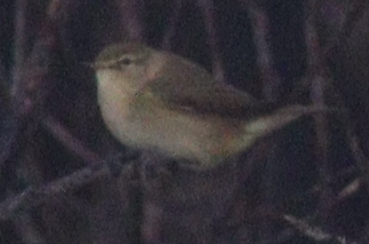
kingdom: Animalia
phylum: Chordata
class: Aves
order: Passeriformes
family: Phylloscopidae
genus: Phylloscopus
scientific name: Phylloscopus collybita
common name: Common chiffchaff
